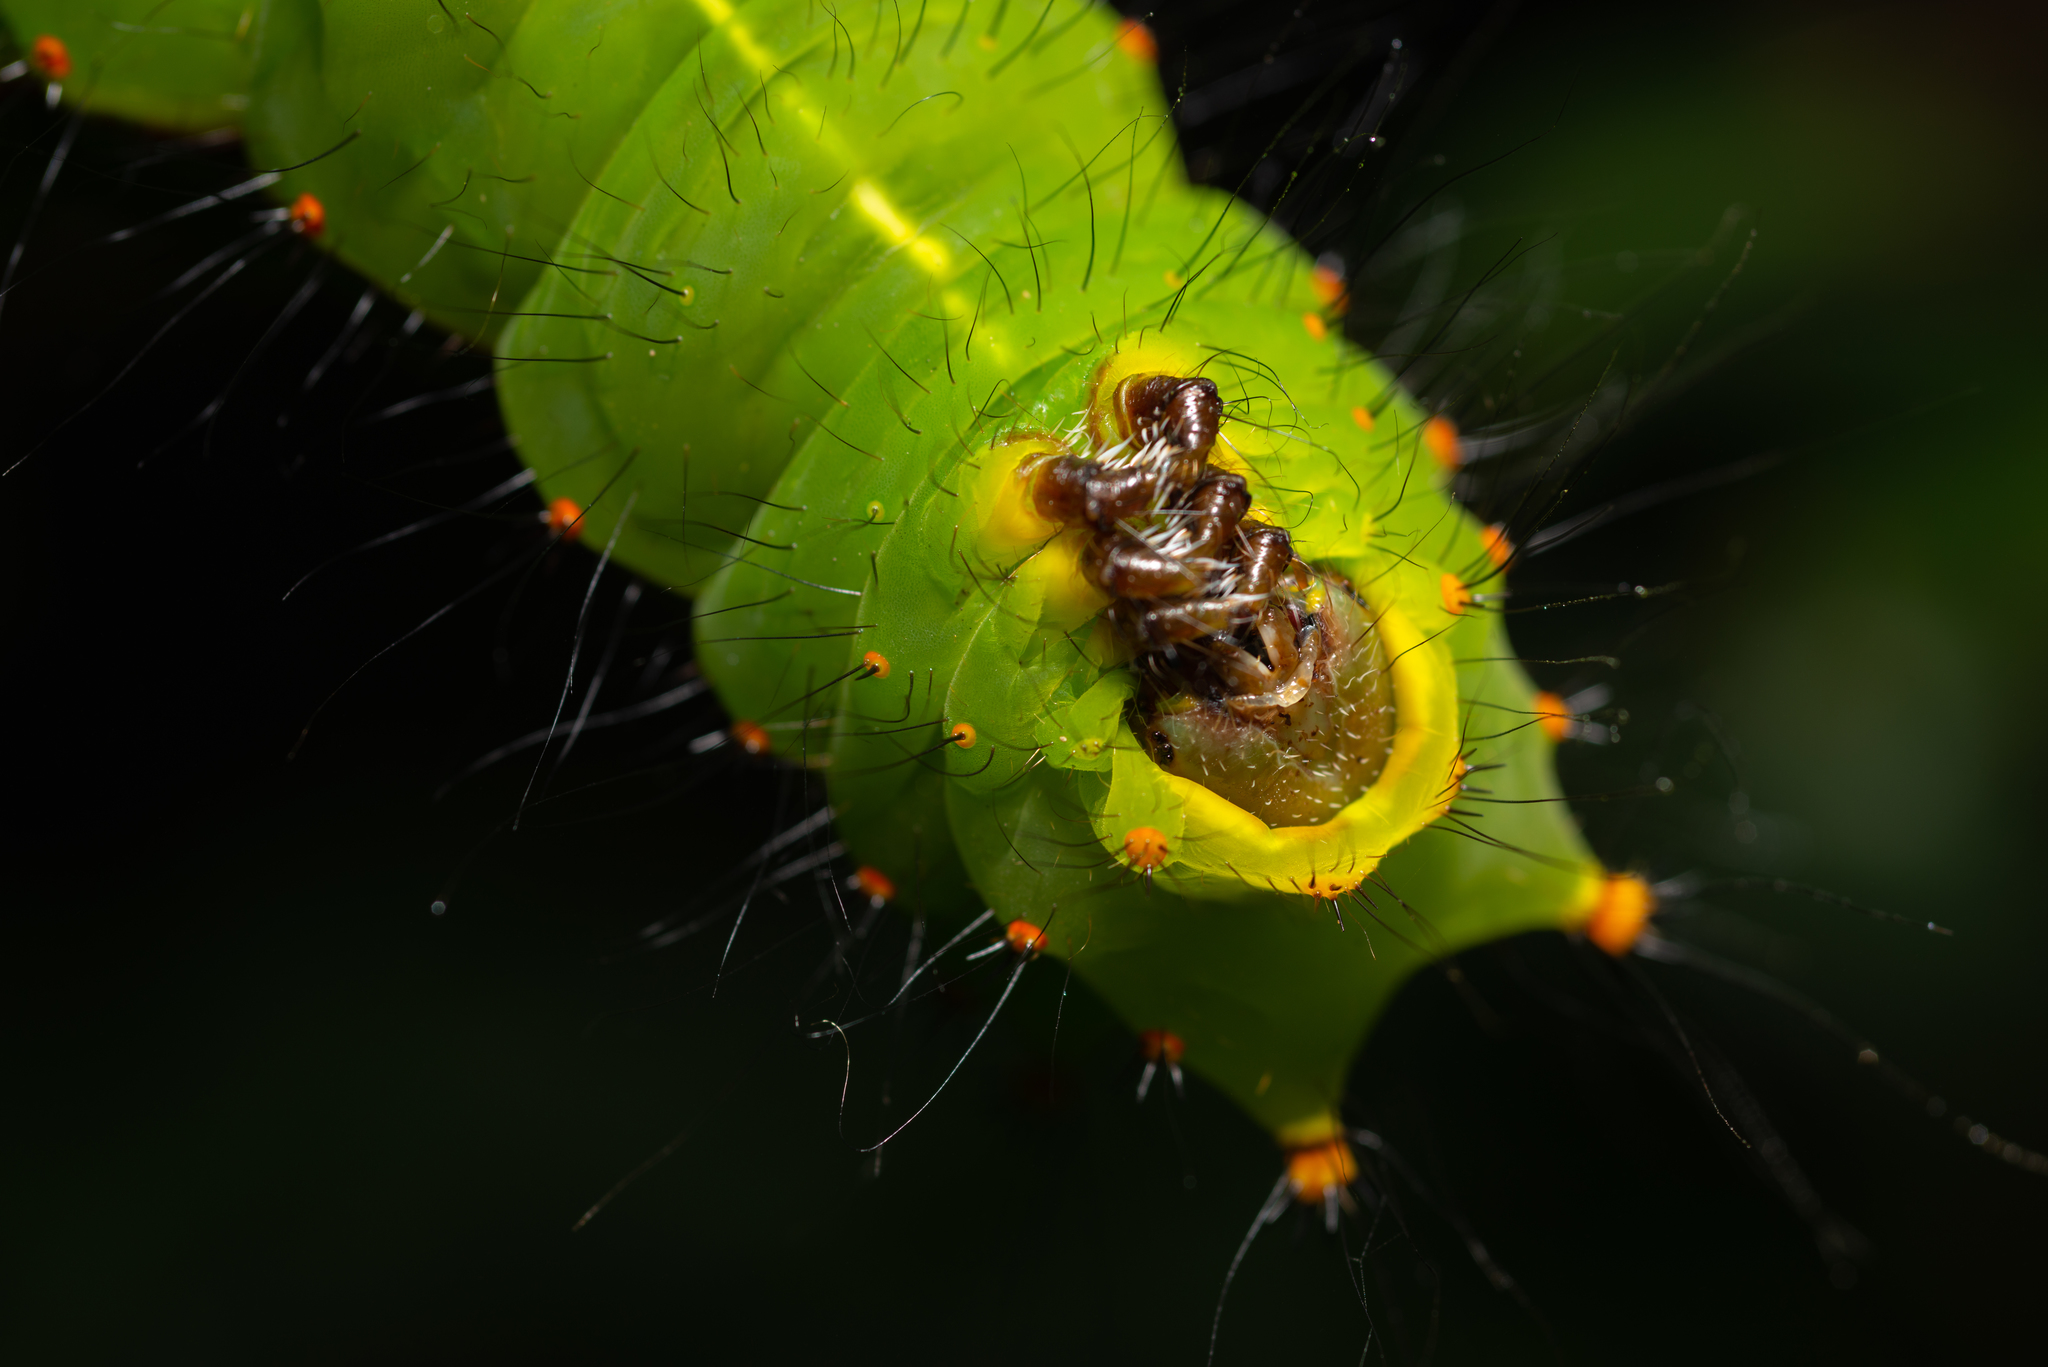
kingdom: Animalia
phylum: Arthropoda
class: Insecta
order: Lepidoptera
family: Saturniidae
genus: Actias
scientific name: Actias ningpoana
